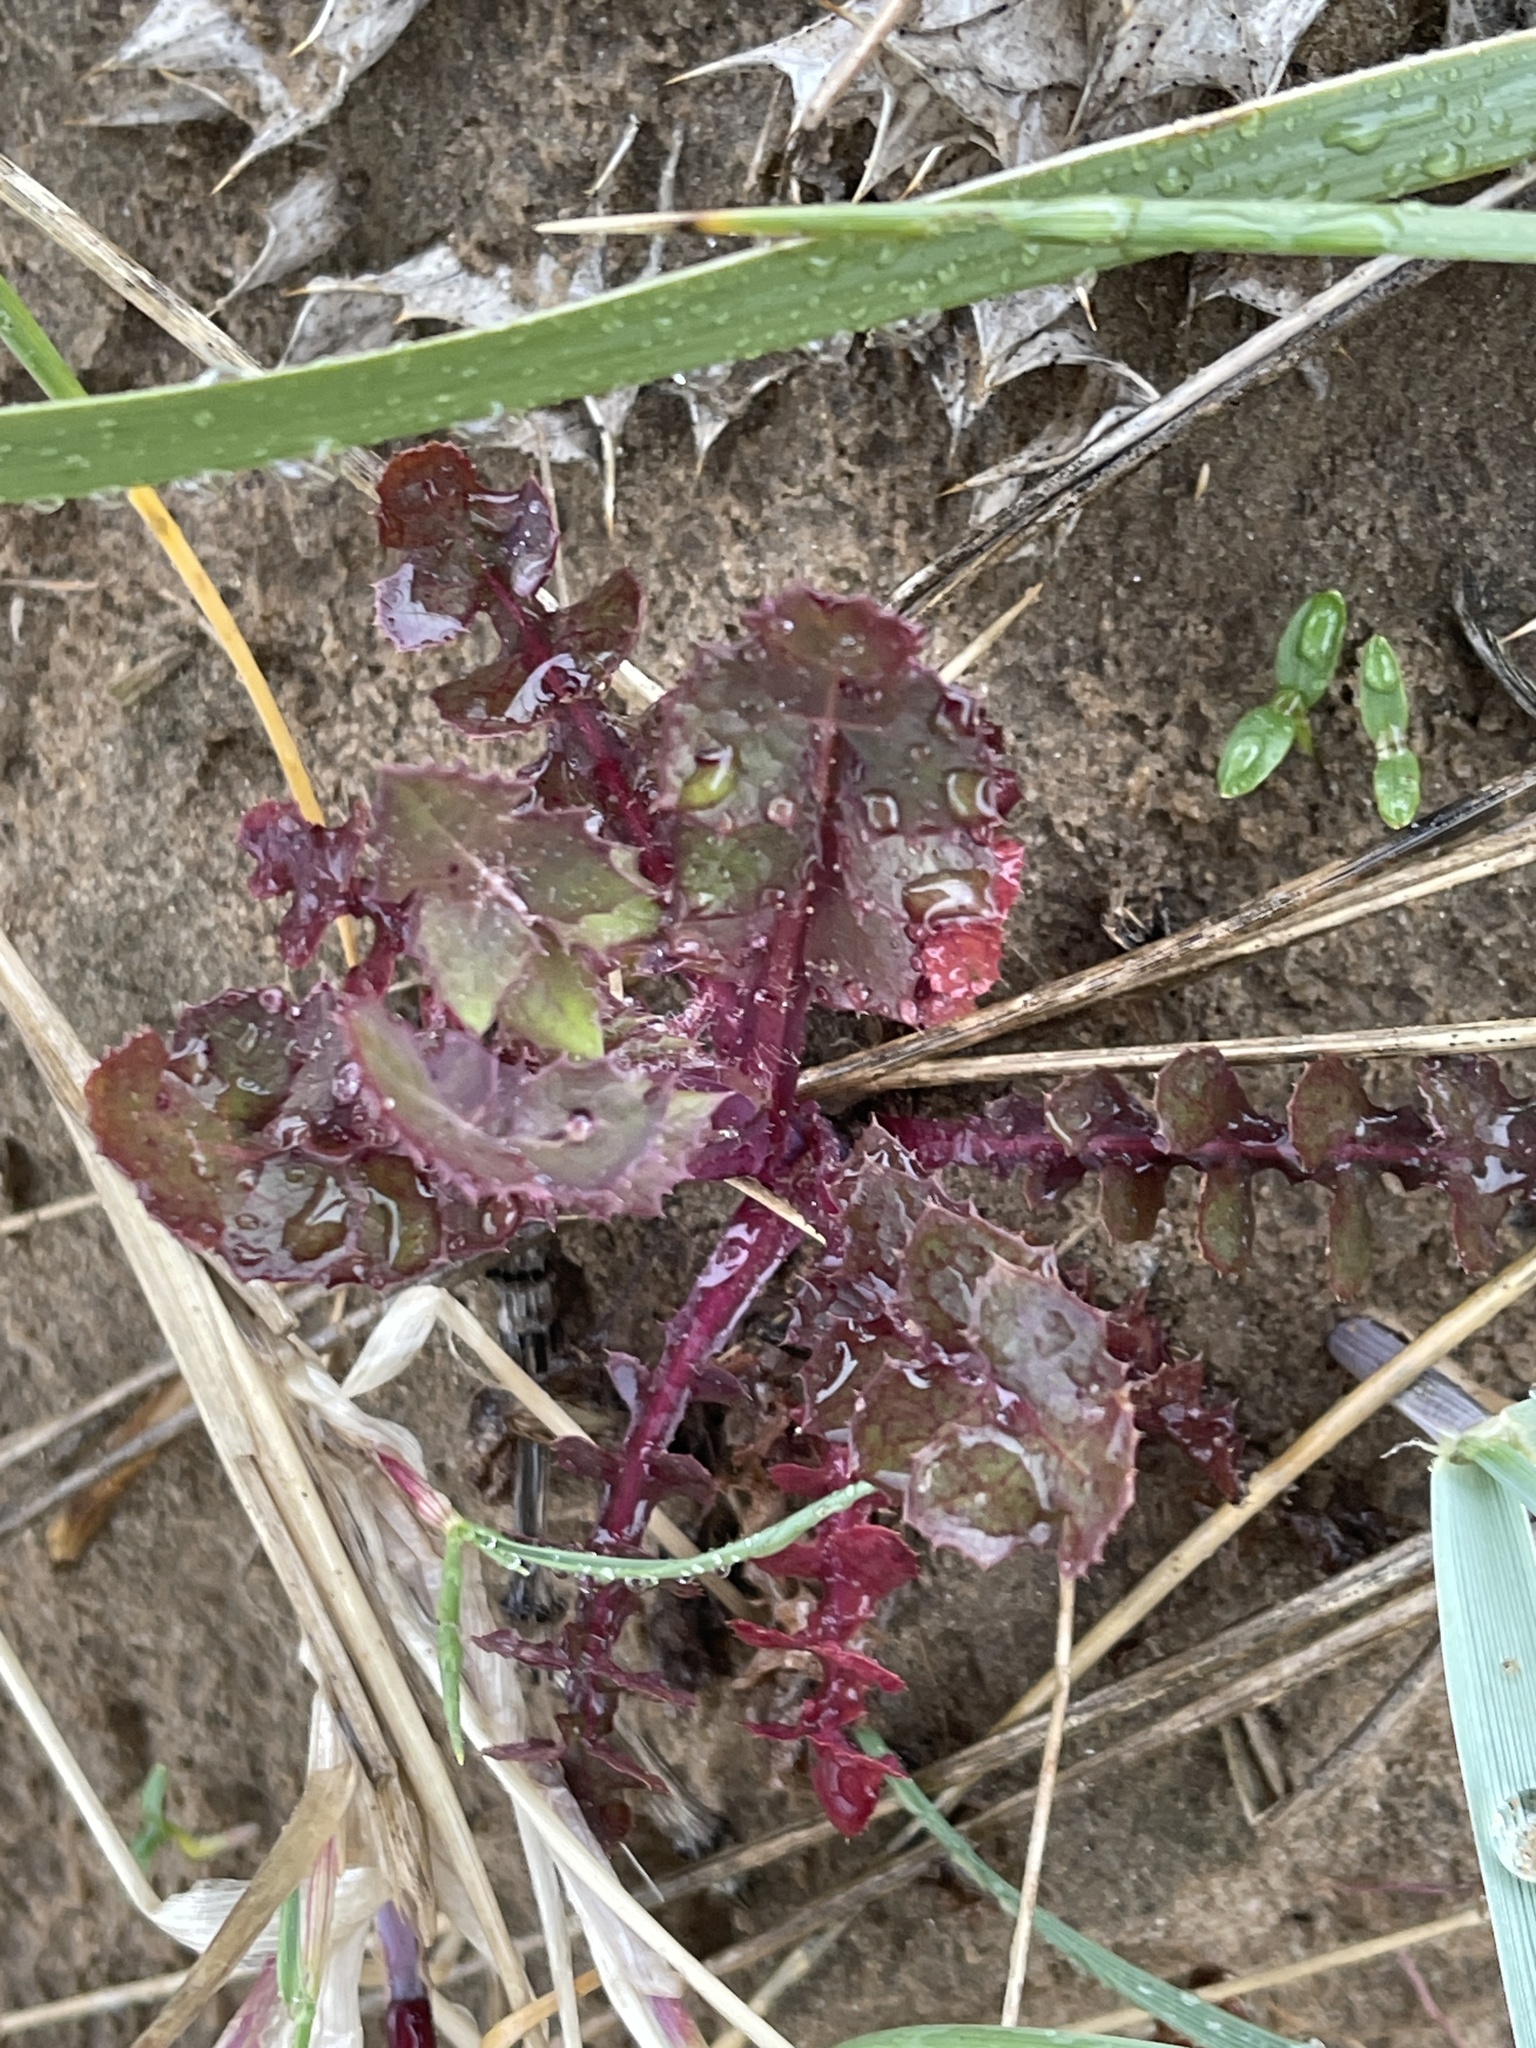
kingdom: Plantae
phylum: Tracheophyta
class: Magnoliopsida
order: Asterales
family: Asteraceae
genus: Sonchus
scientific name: Sonchus oleraceus
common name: Common sowthistle
